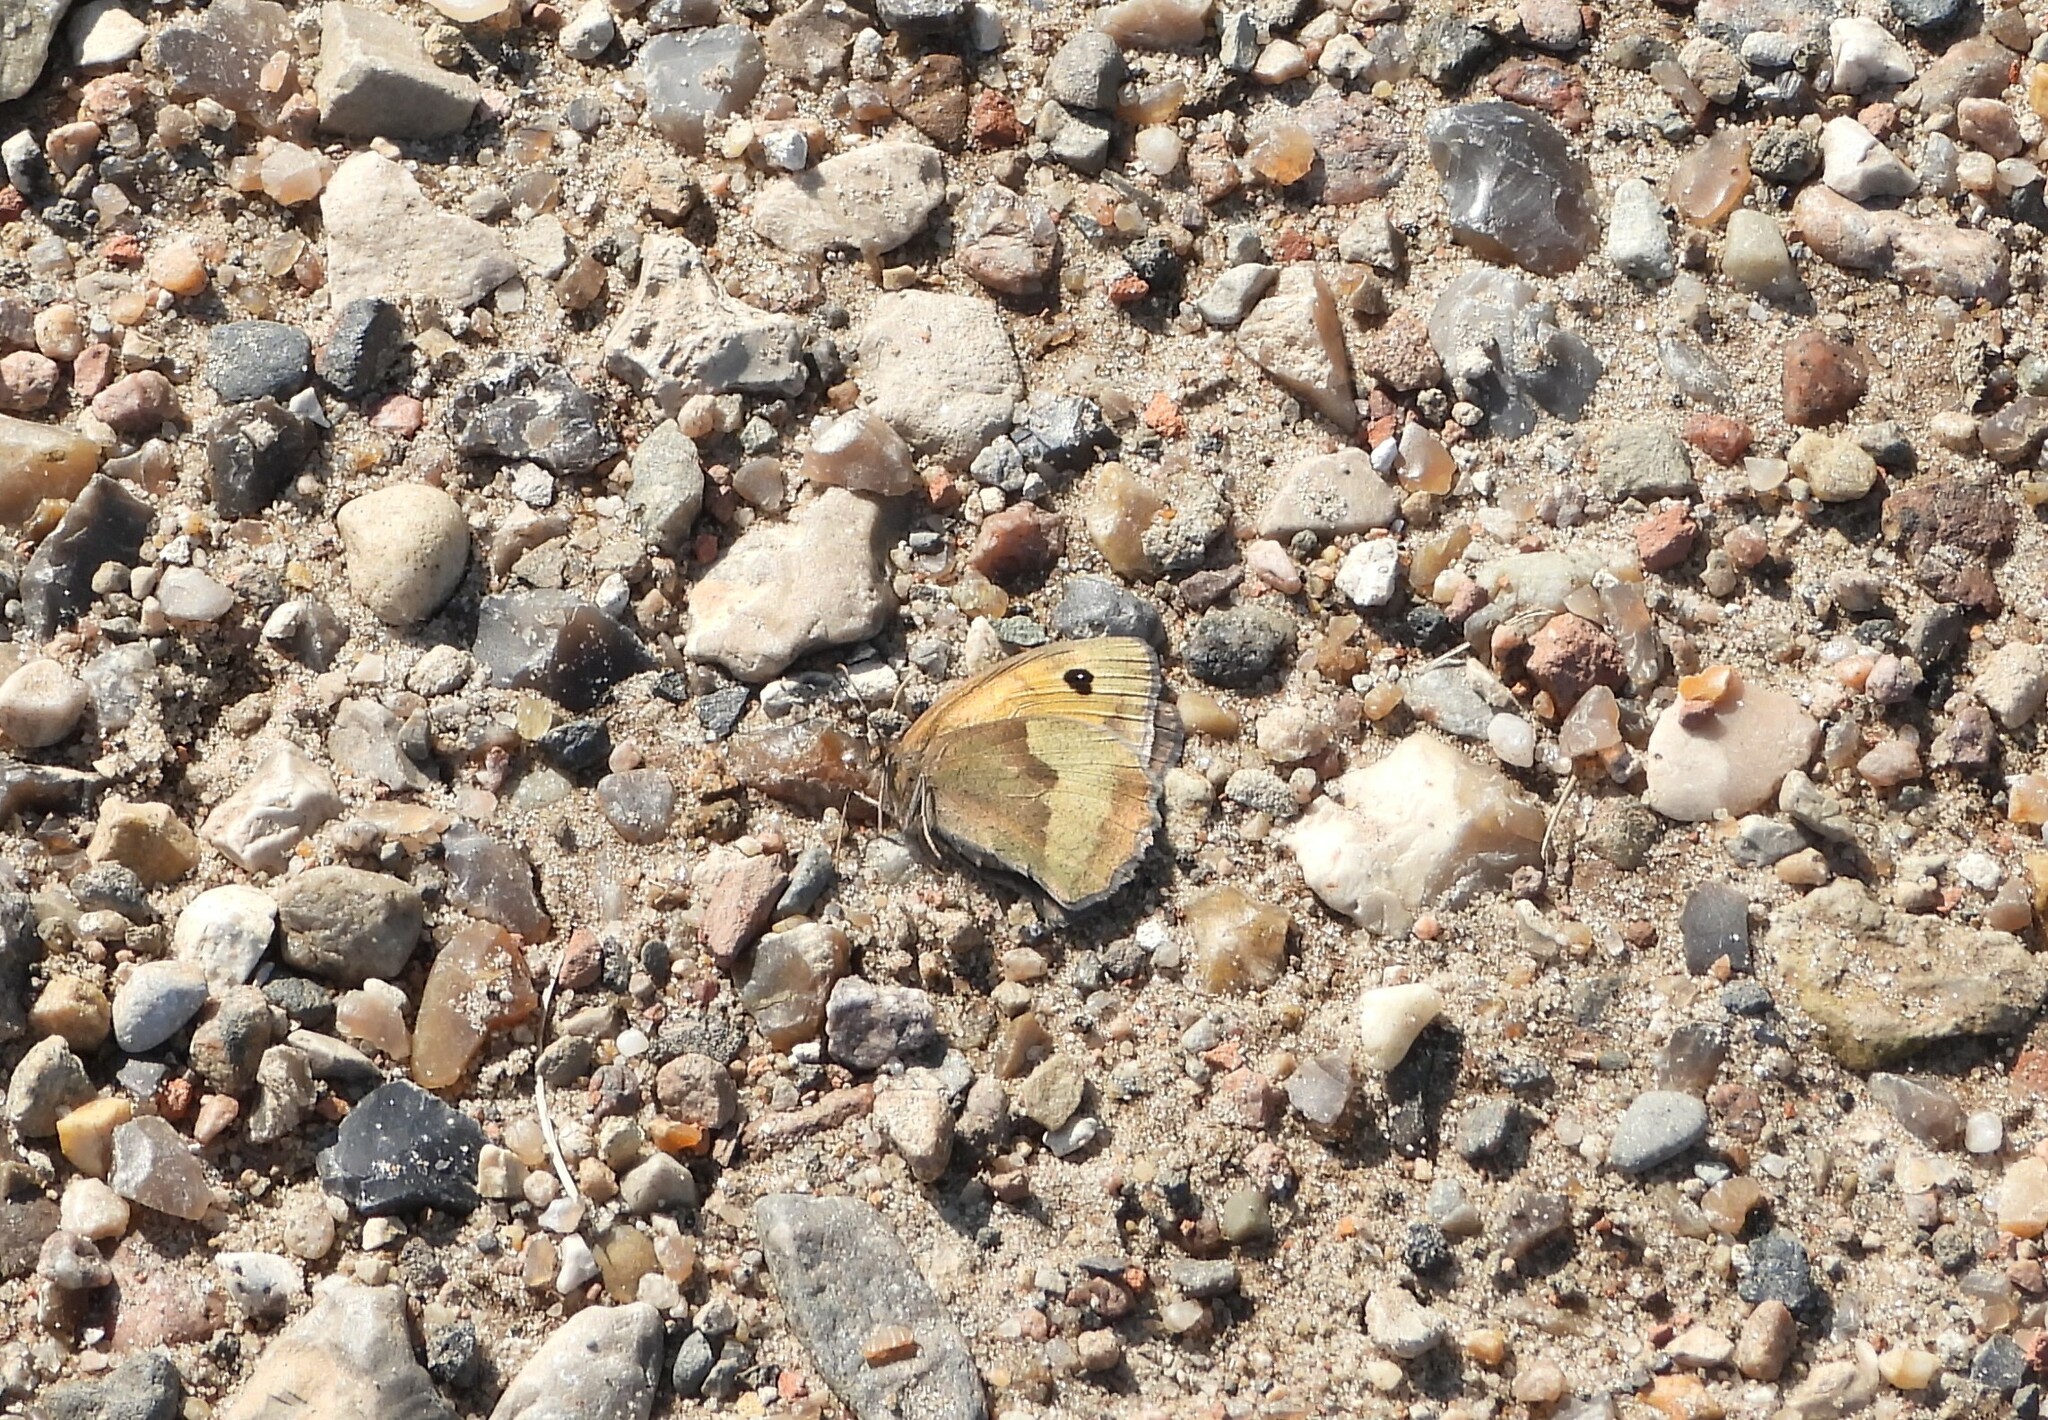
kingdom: Animalia
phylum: Arthropoda
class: Insecta
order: Lepidoptera
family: Nymphalidae
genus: Maniola
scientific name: Maniola jurtina
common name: Meadow brown
